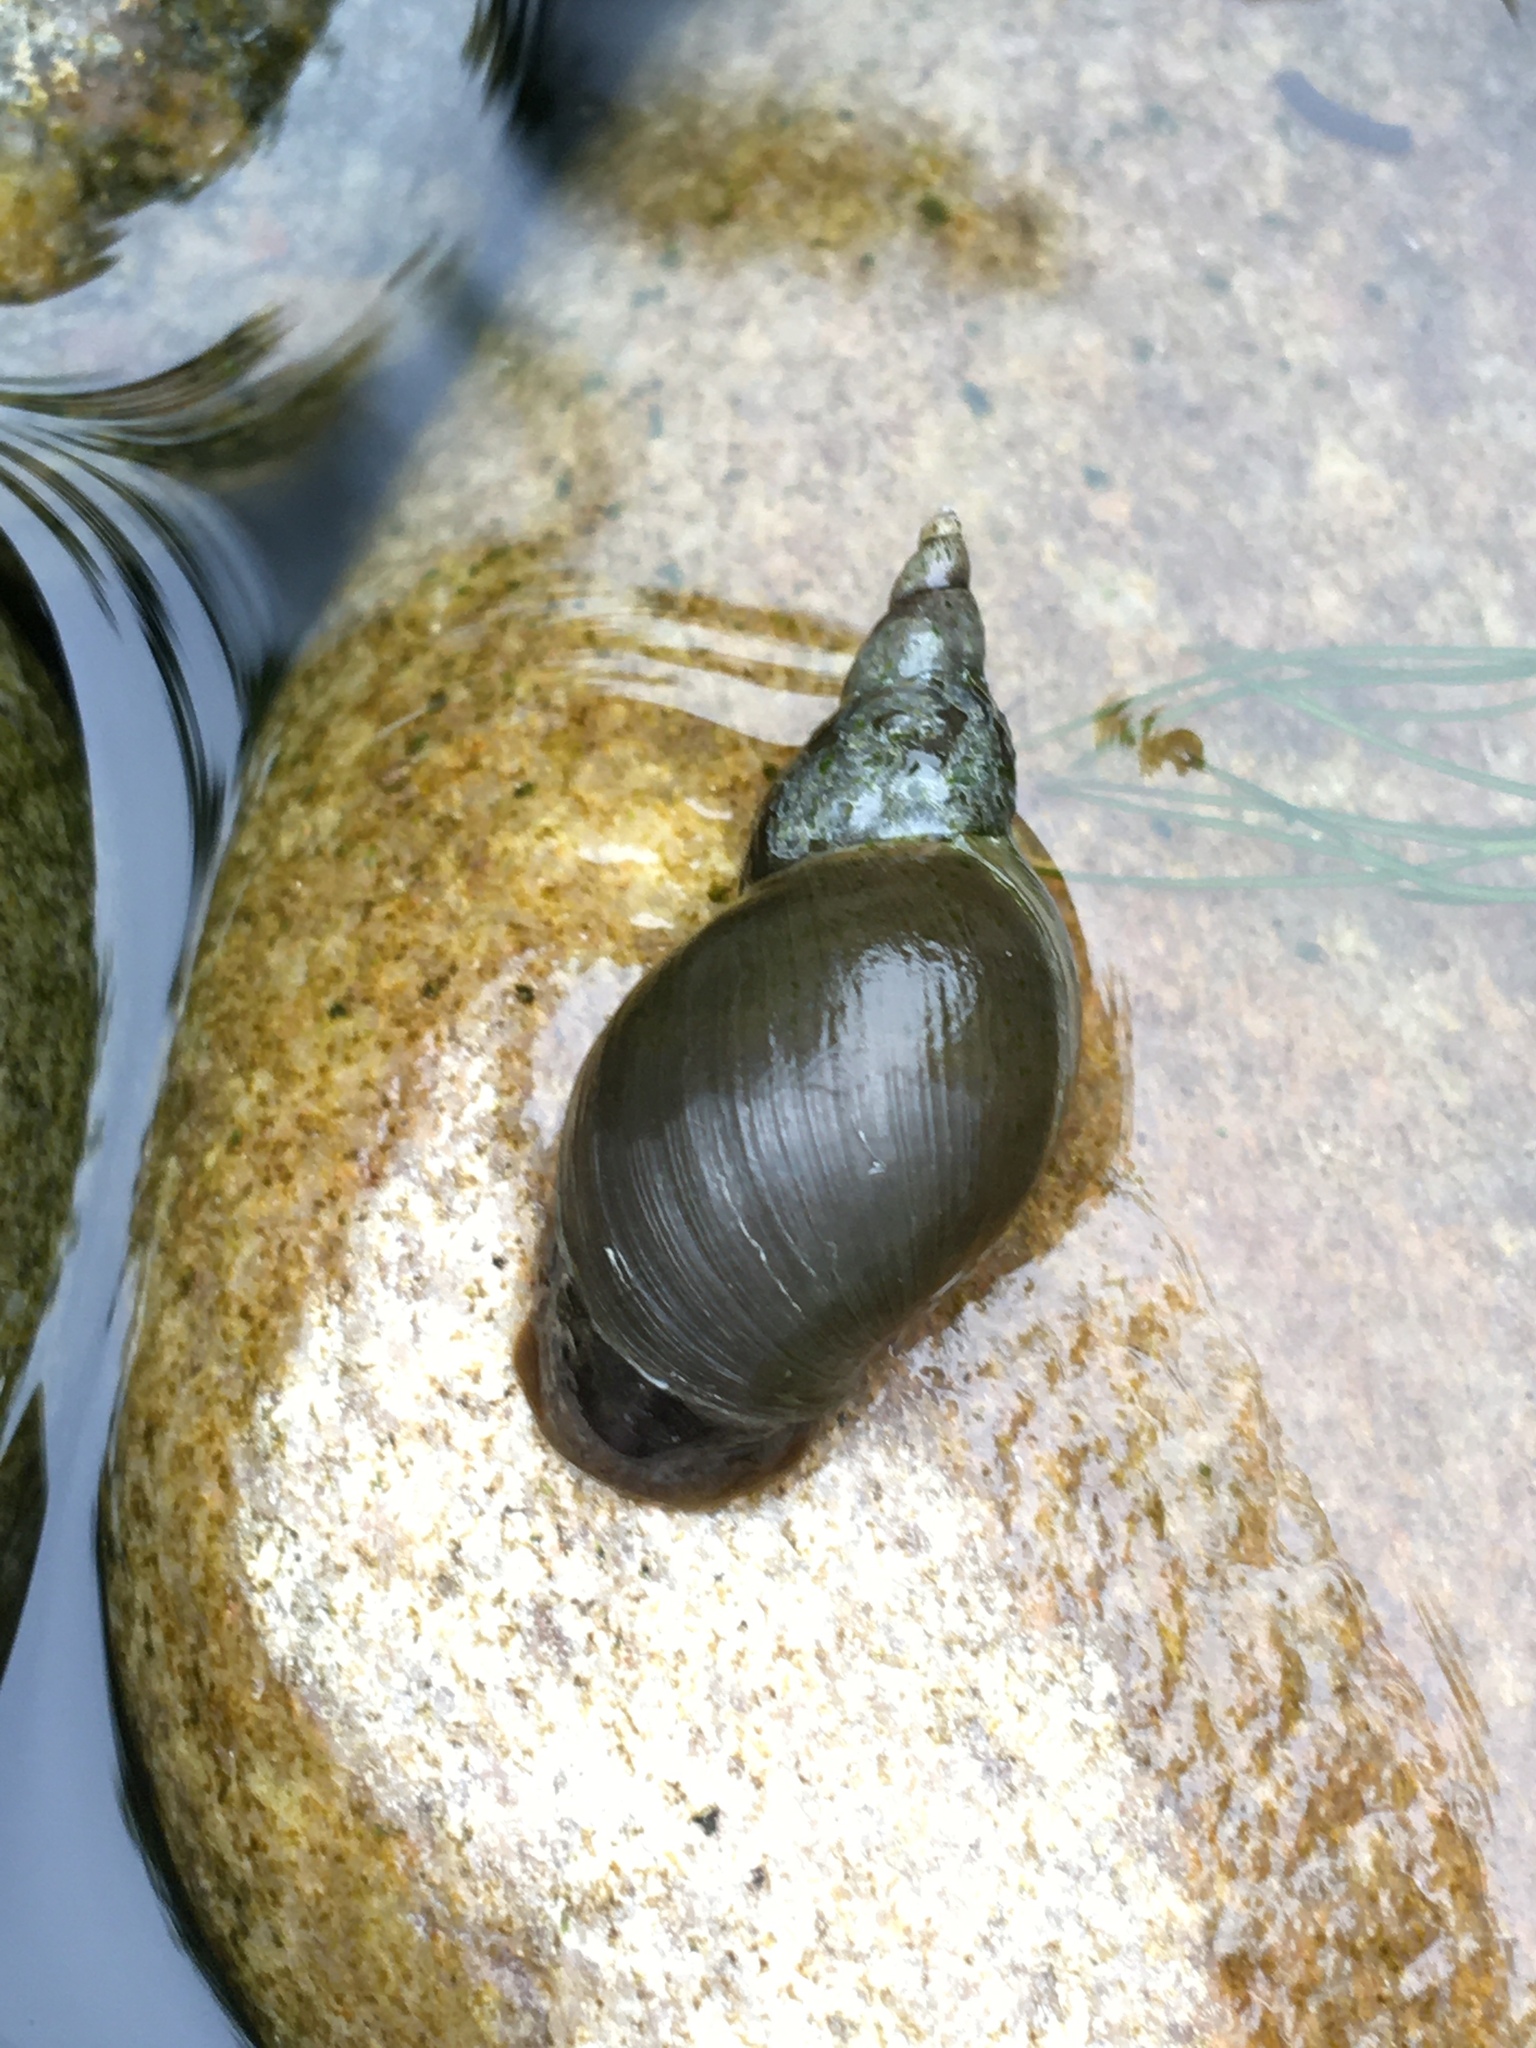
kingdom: Animalia
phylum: Mollusca
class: Gastropoda
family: Lymnaeidae
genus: Lymnaea
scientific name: Lymnaea stagnalis
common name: Great pond snail
